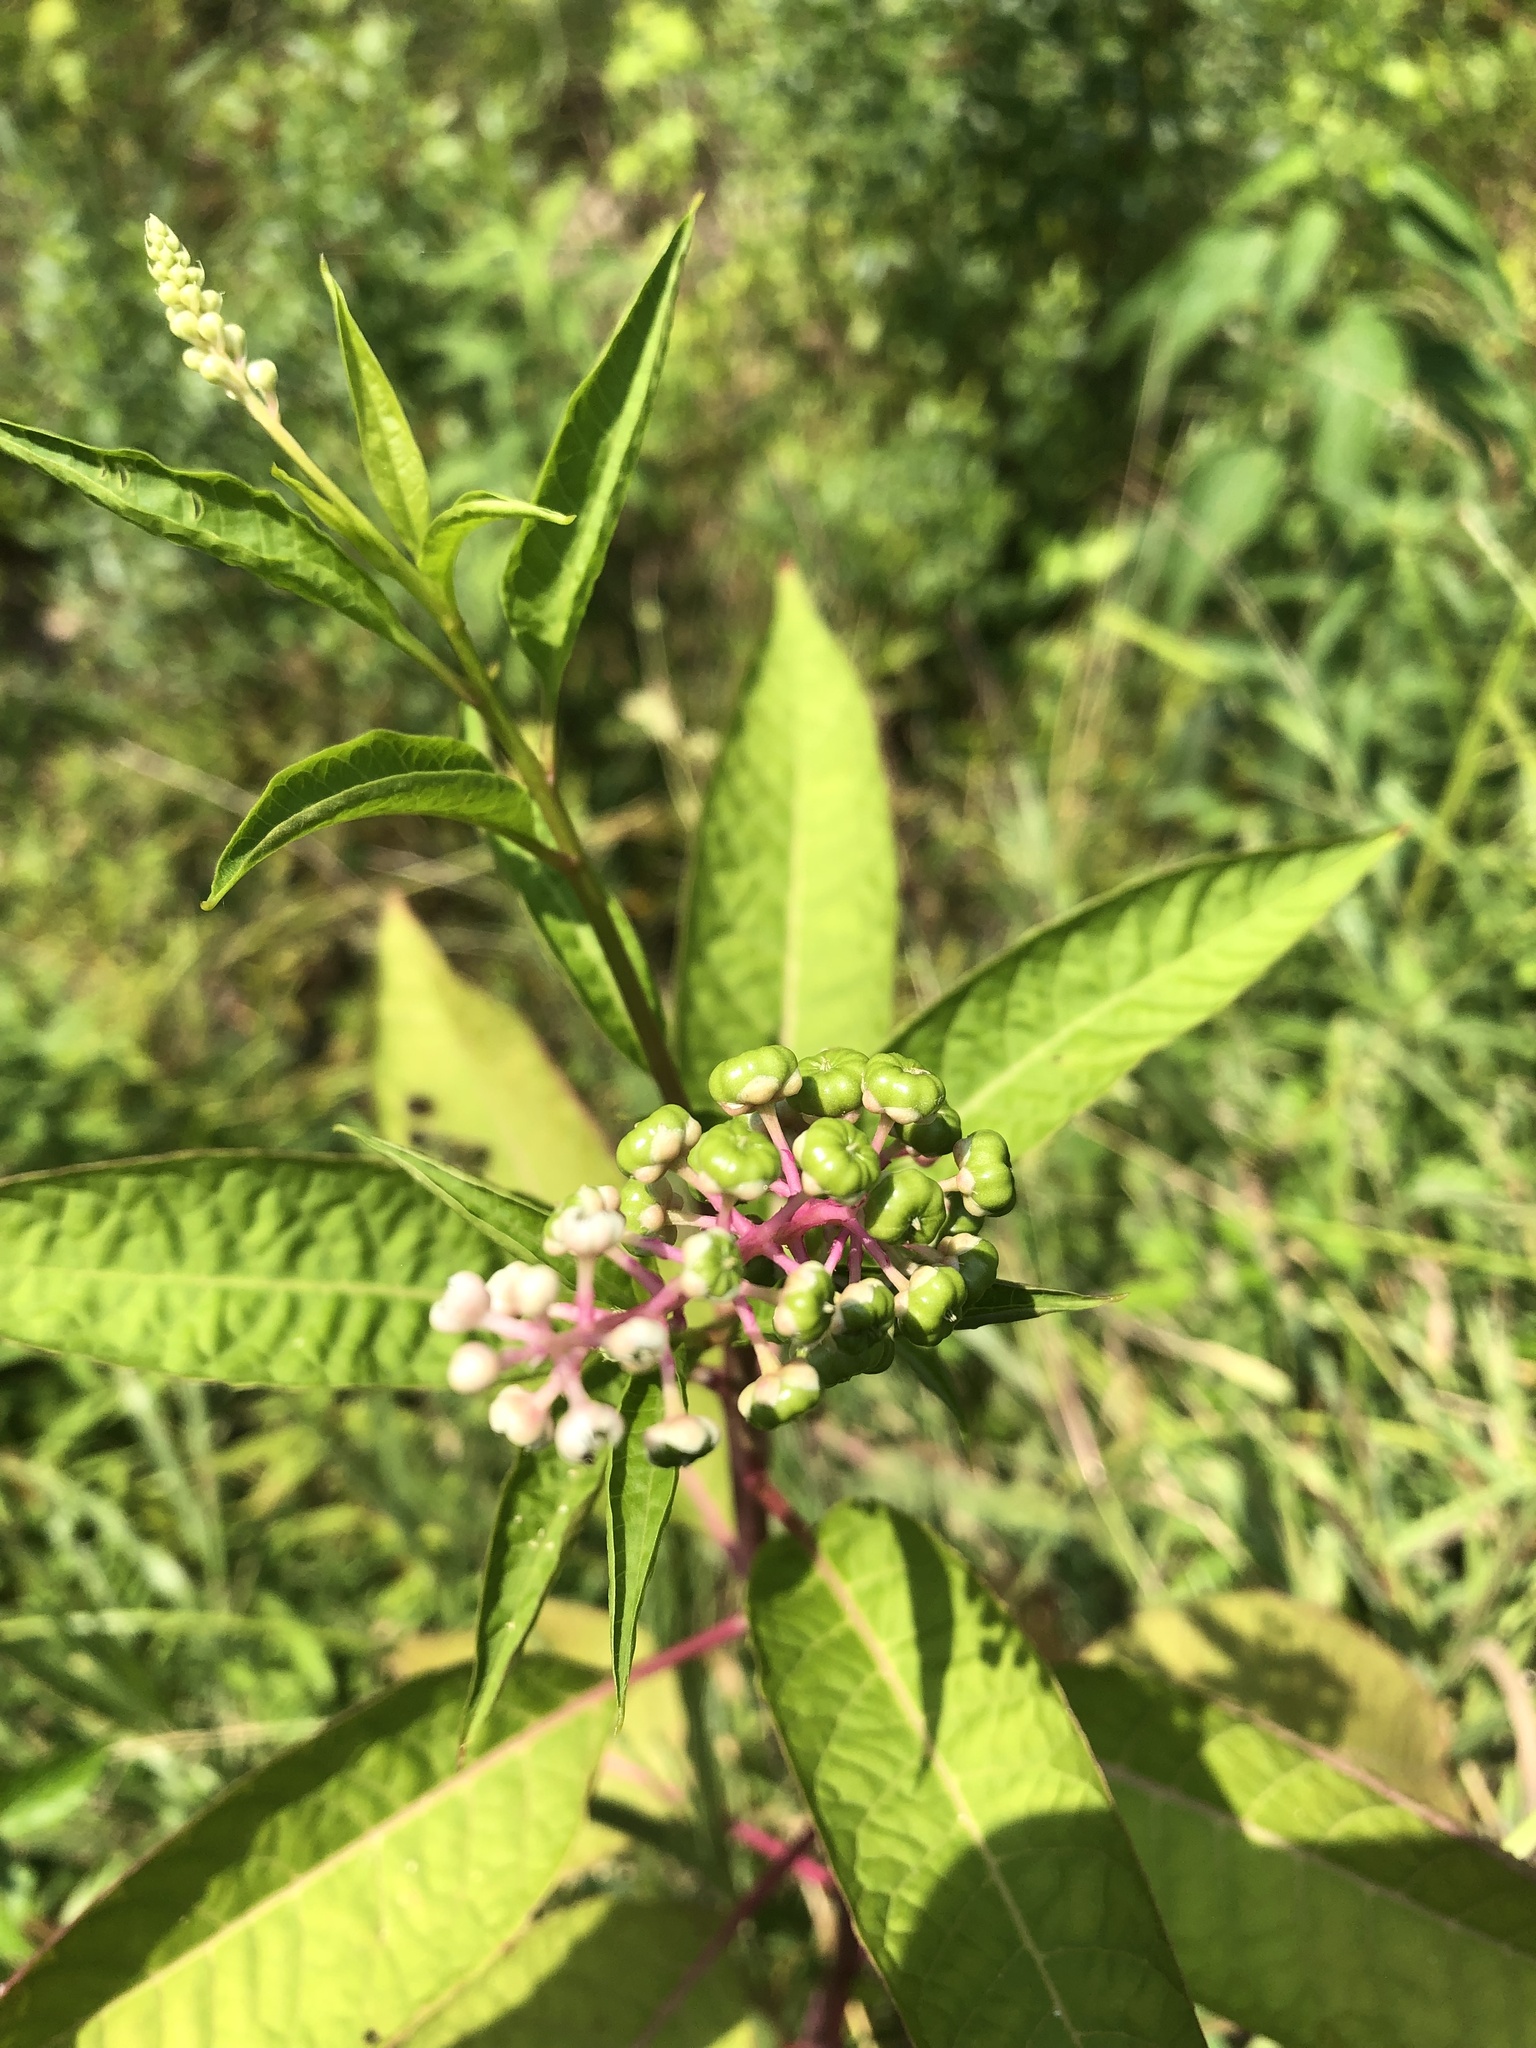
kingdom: Plantae
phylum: Tracheophyta
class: Magnoliopsida
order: Caryophyllales
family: Phytolaccaceae
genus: Phytolacca
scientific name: Phytolacca americana
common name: American pokeweed
